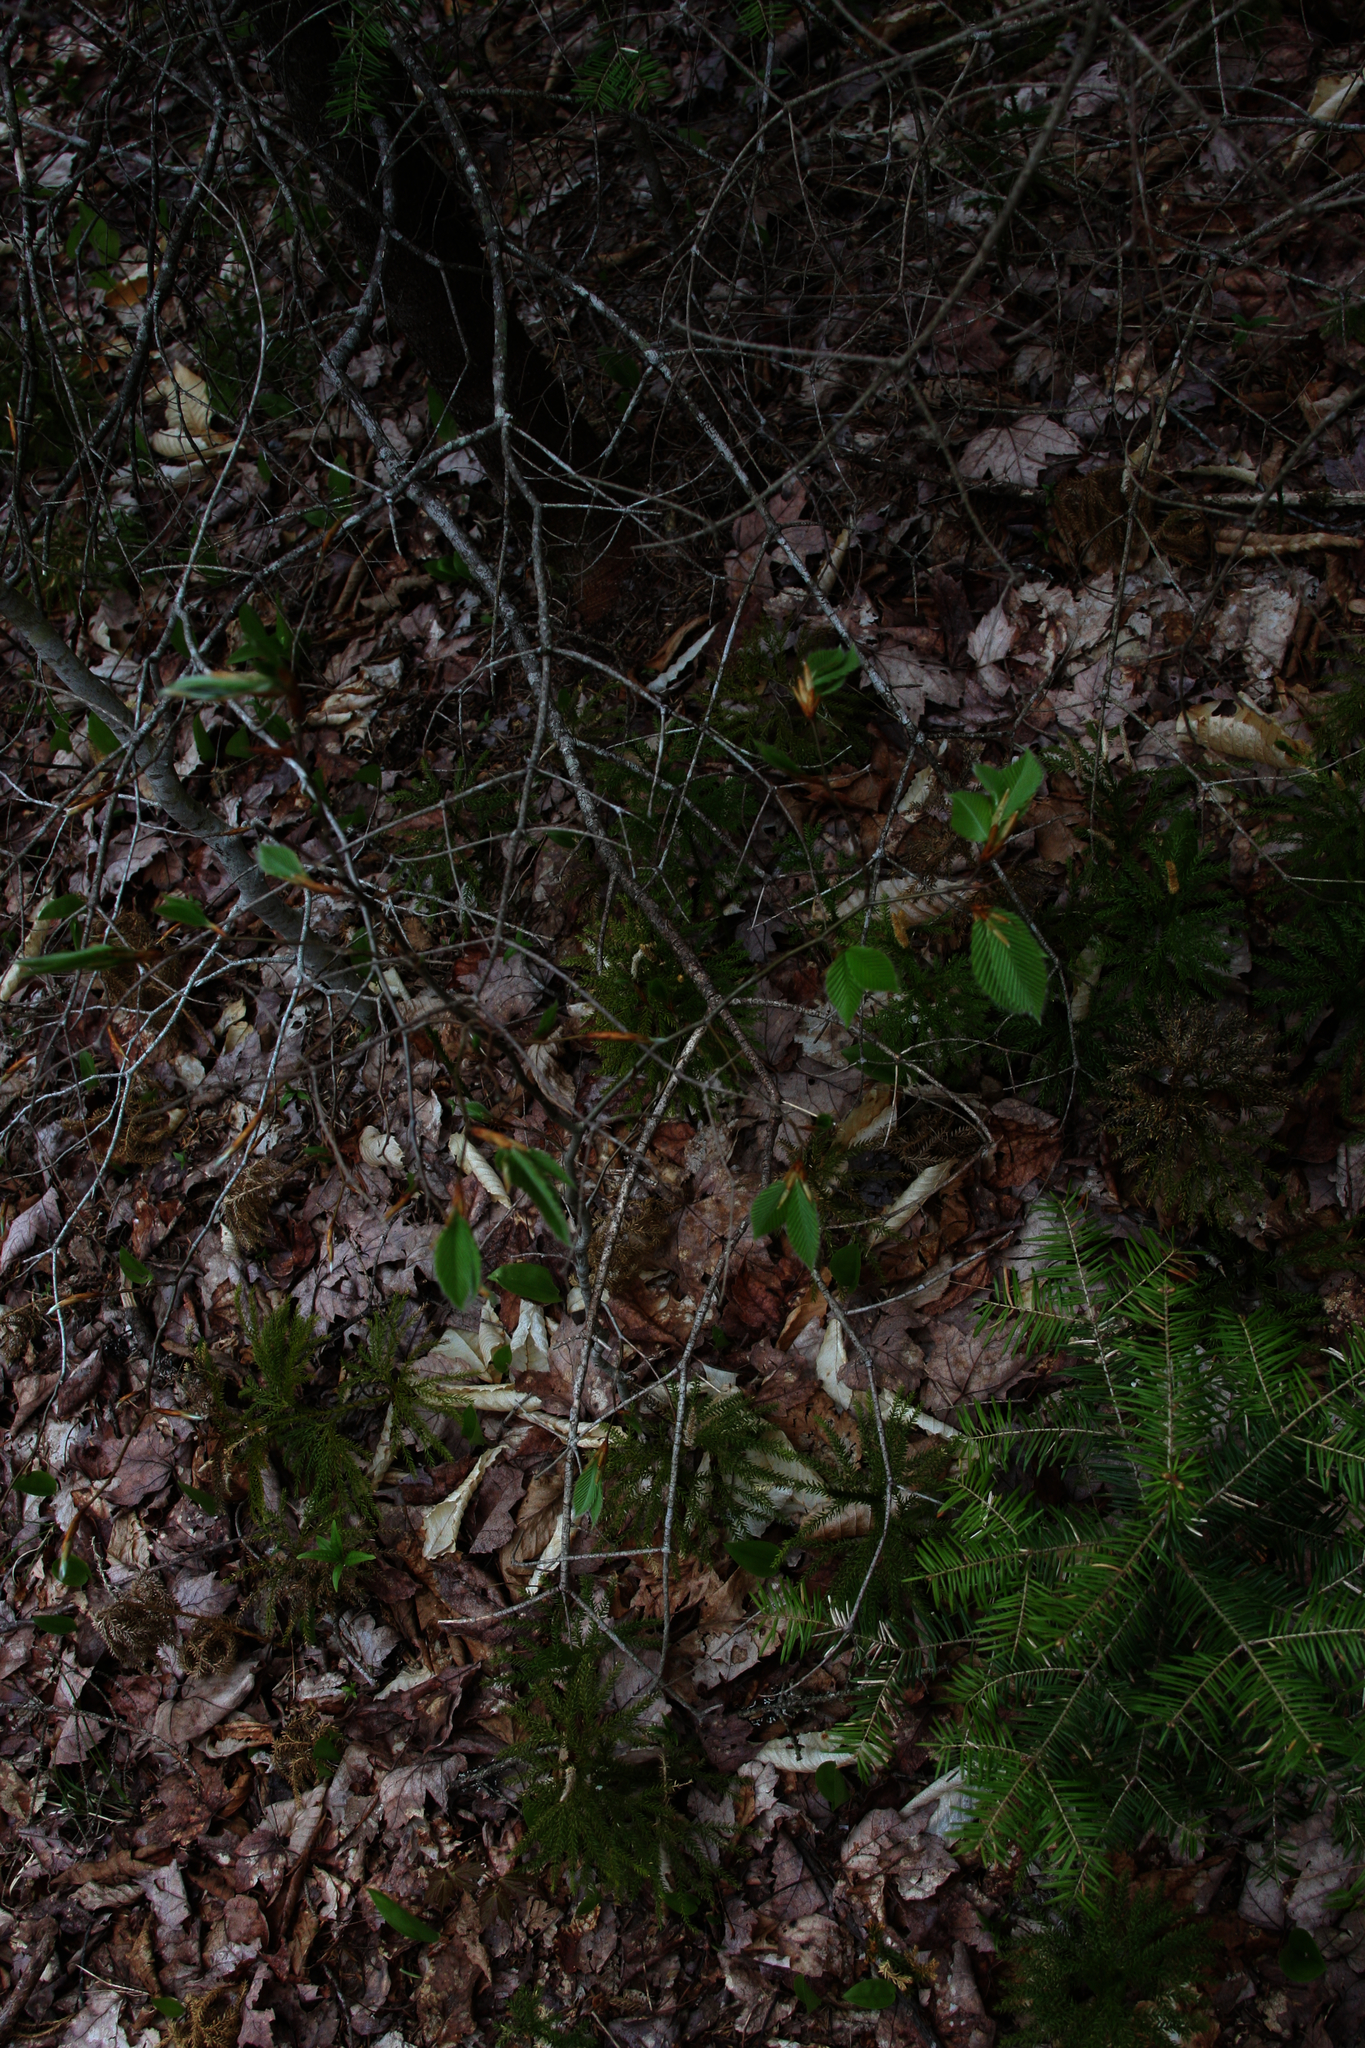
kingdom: Plantae
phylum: Tracheophyta
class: Magnoliopsida
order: Fagales
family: Fagaceae
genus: Fagus
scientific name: Fagus grandifolia
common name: American beech
